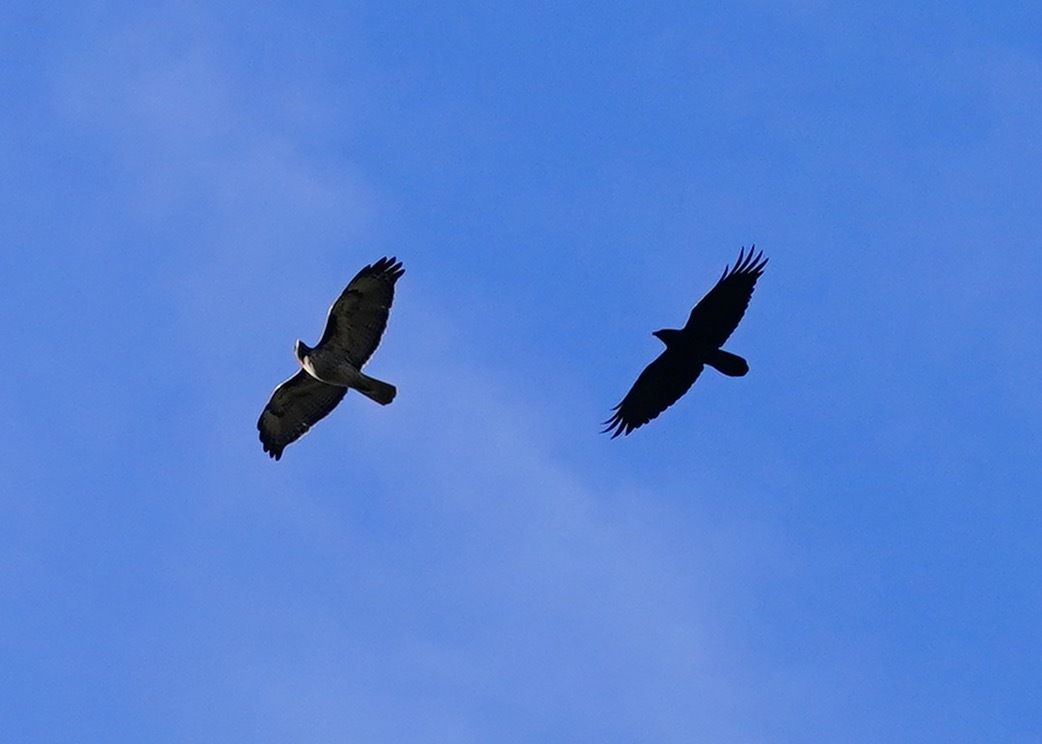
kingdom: Animalia
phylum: Chordata
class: Aves
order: Accipitriformes
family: Accipitridae
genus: Buteo
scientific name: Buteo jamaicensis
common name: Red-tailed hawk
